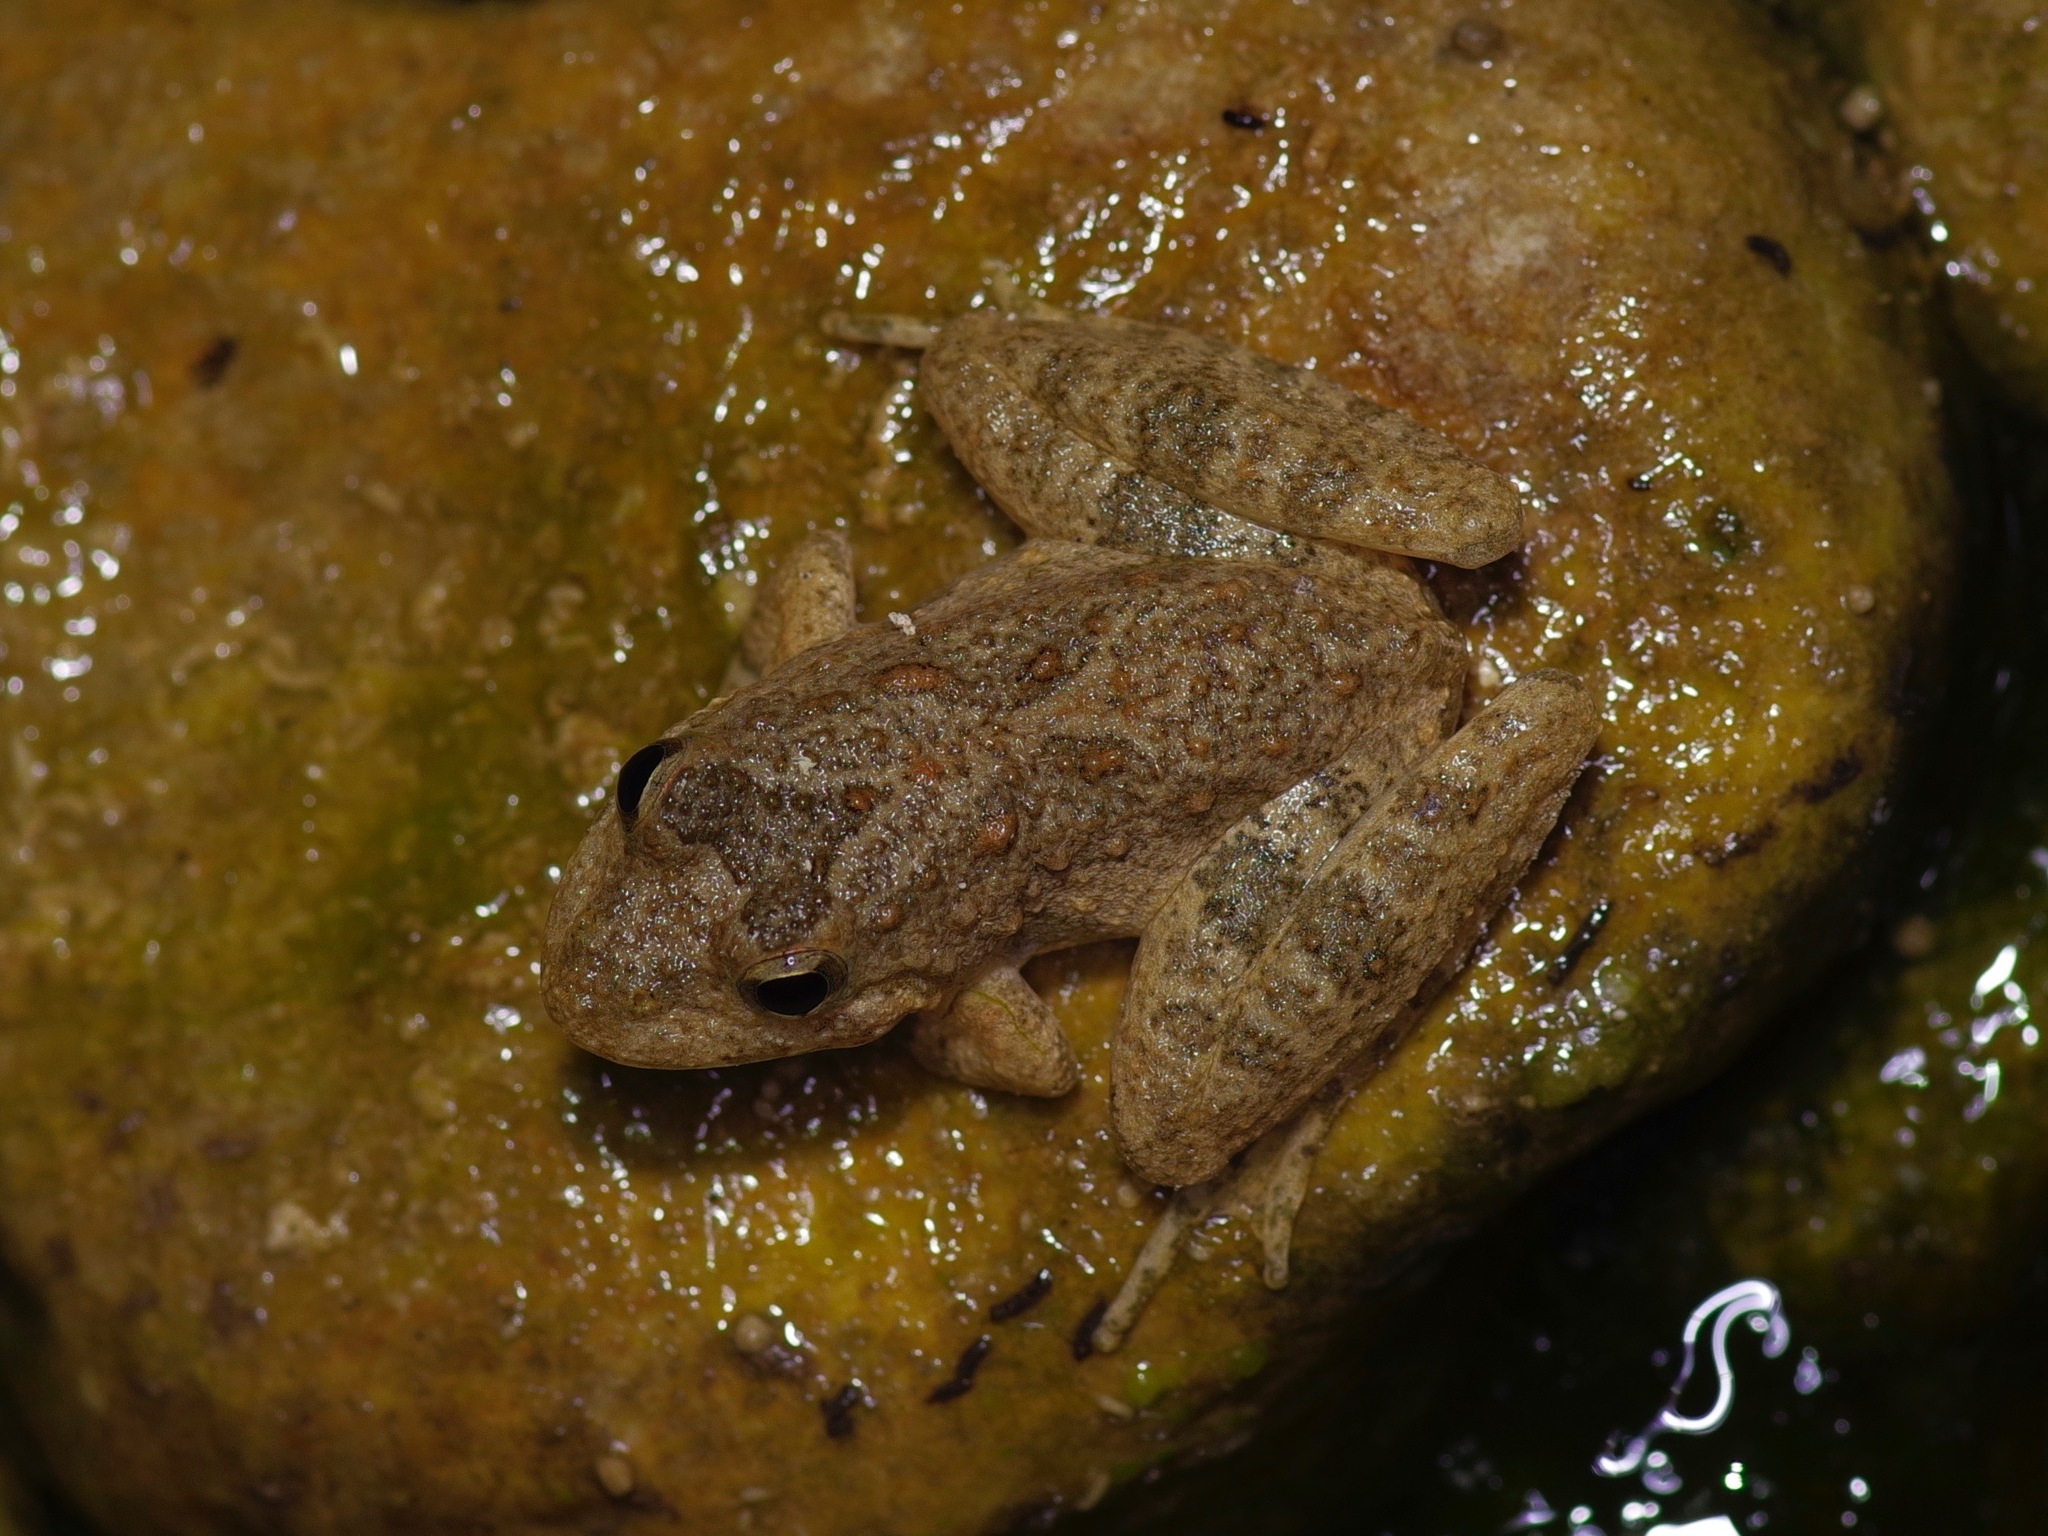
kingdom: Animalia
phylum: Chordata
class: Amphibia
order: Anura
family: Hylidae
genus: Acris
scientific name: Acris blanchardi
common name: Blanchard's cricket frog
